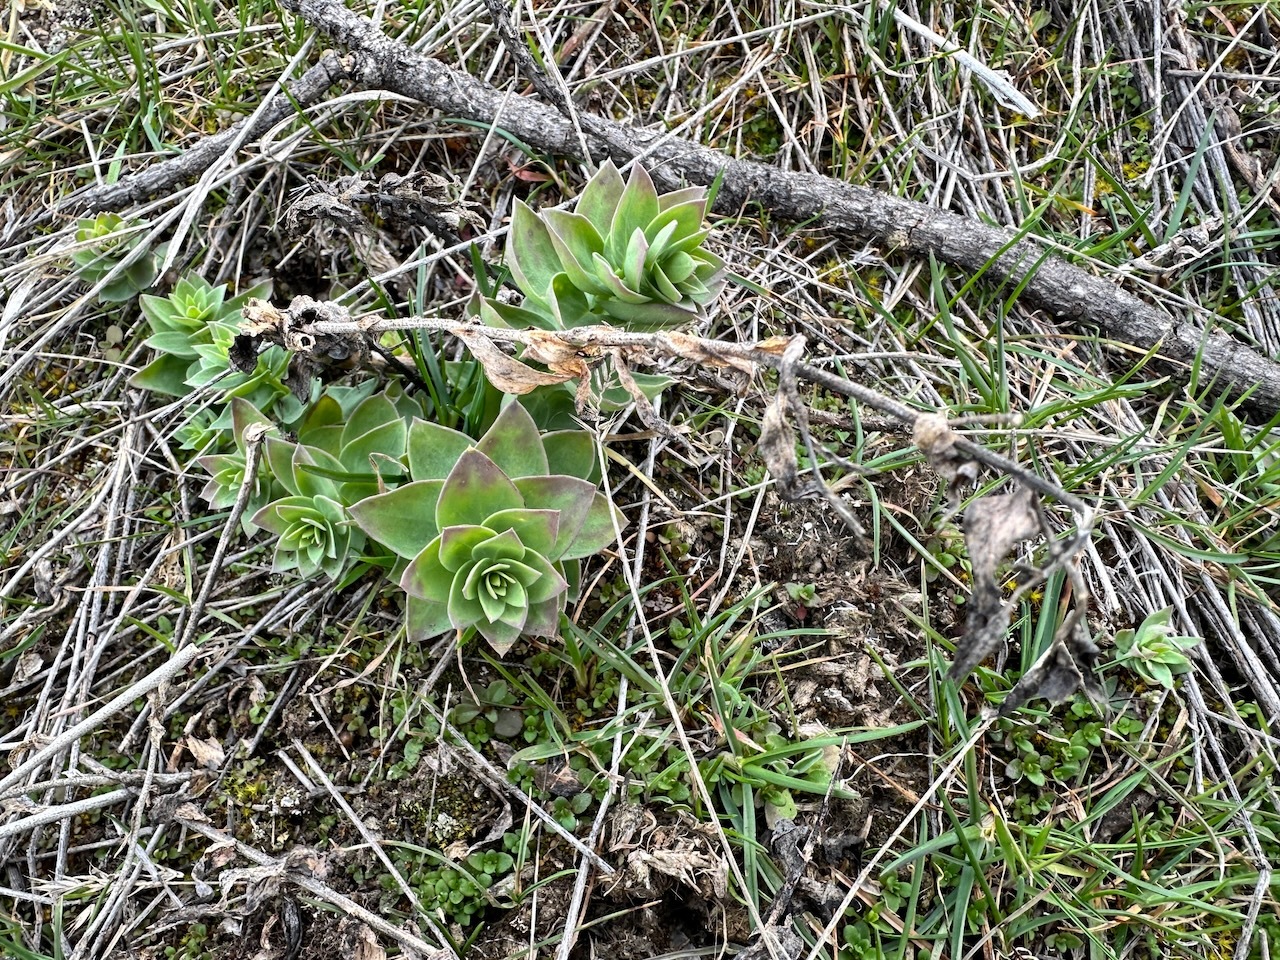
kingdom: Plantae
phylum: Tracheophyta
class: Magnoliopsida
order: Lamiales
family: Plantaginaceae
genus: Linaria
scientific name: Linaria dalmatica
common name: Dalmatian toadflax
